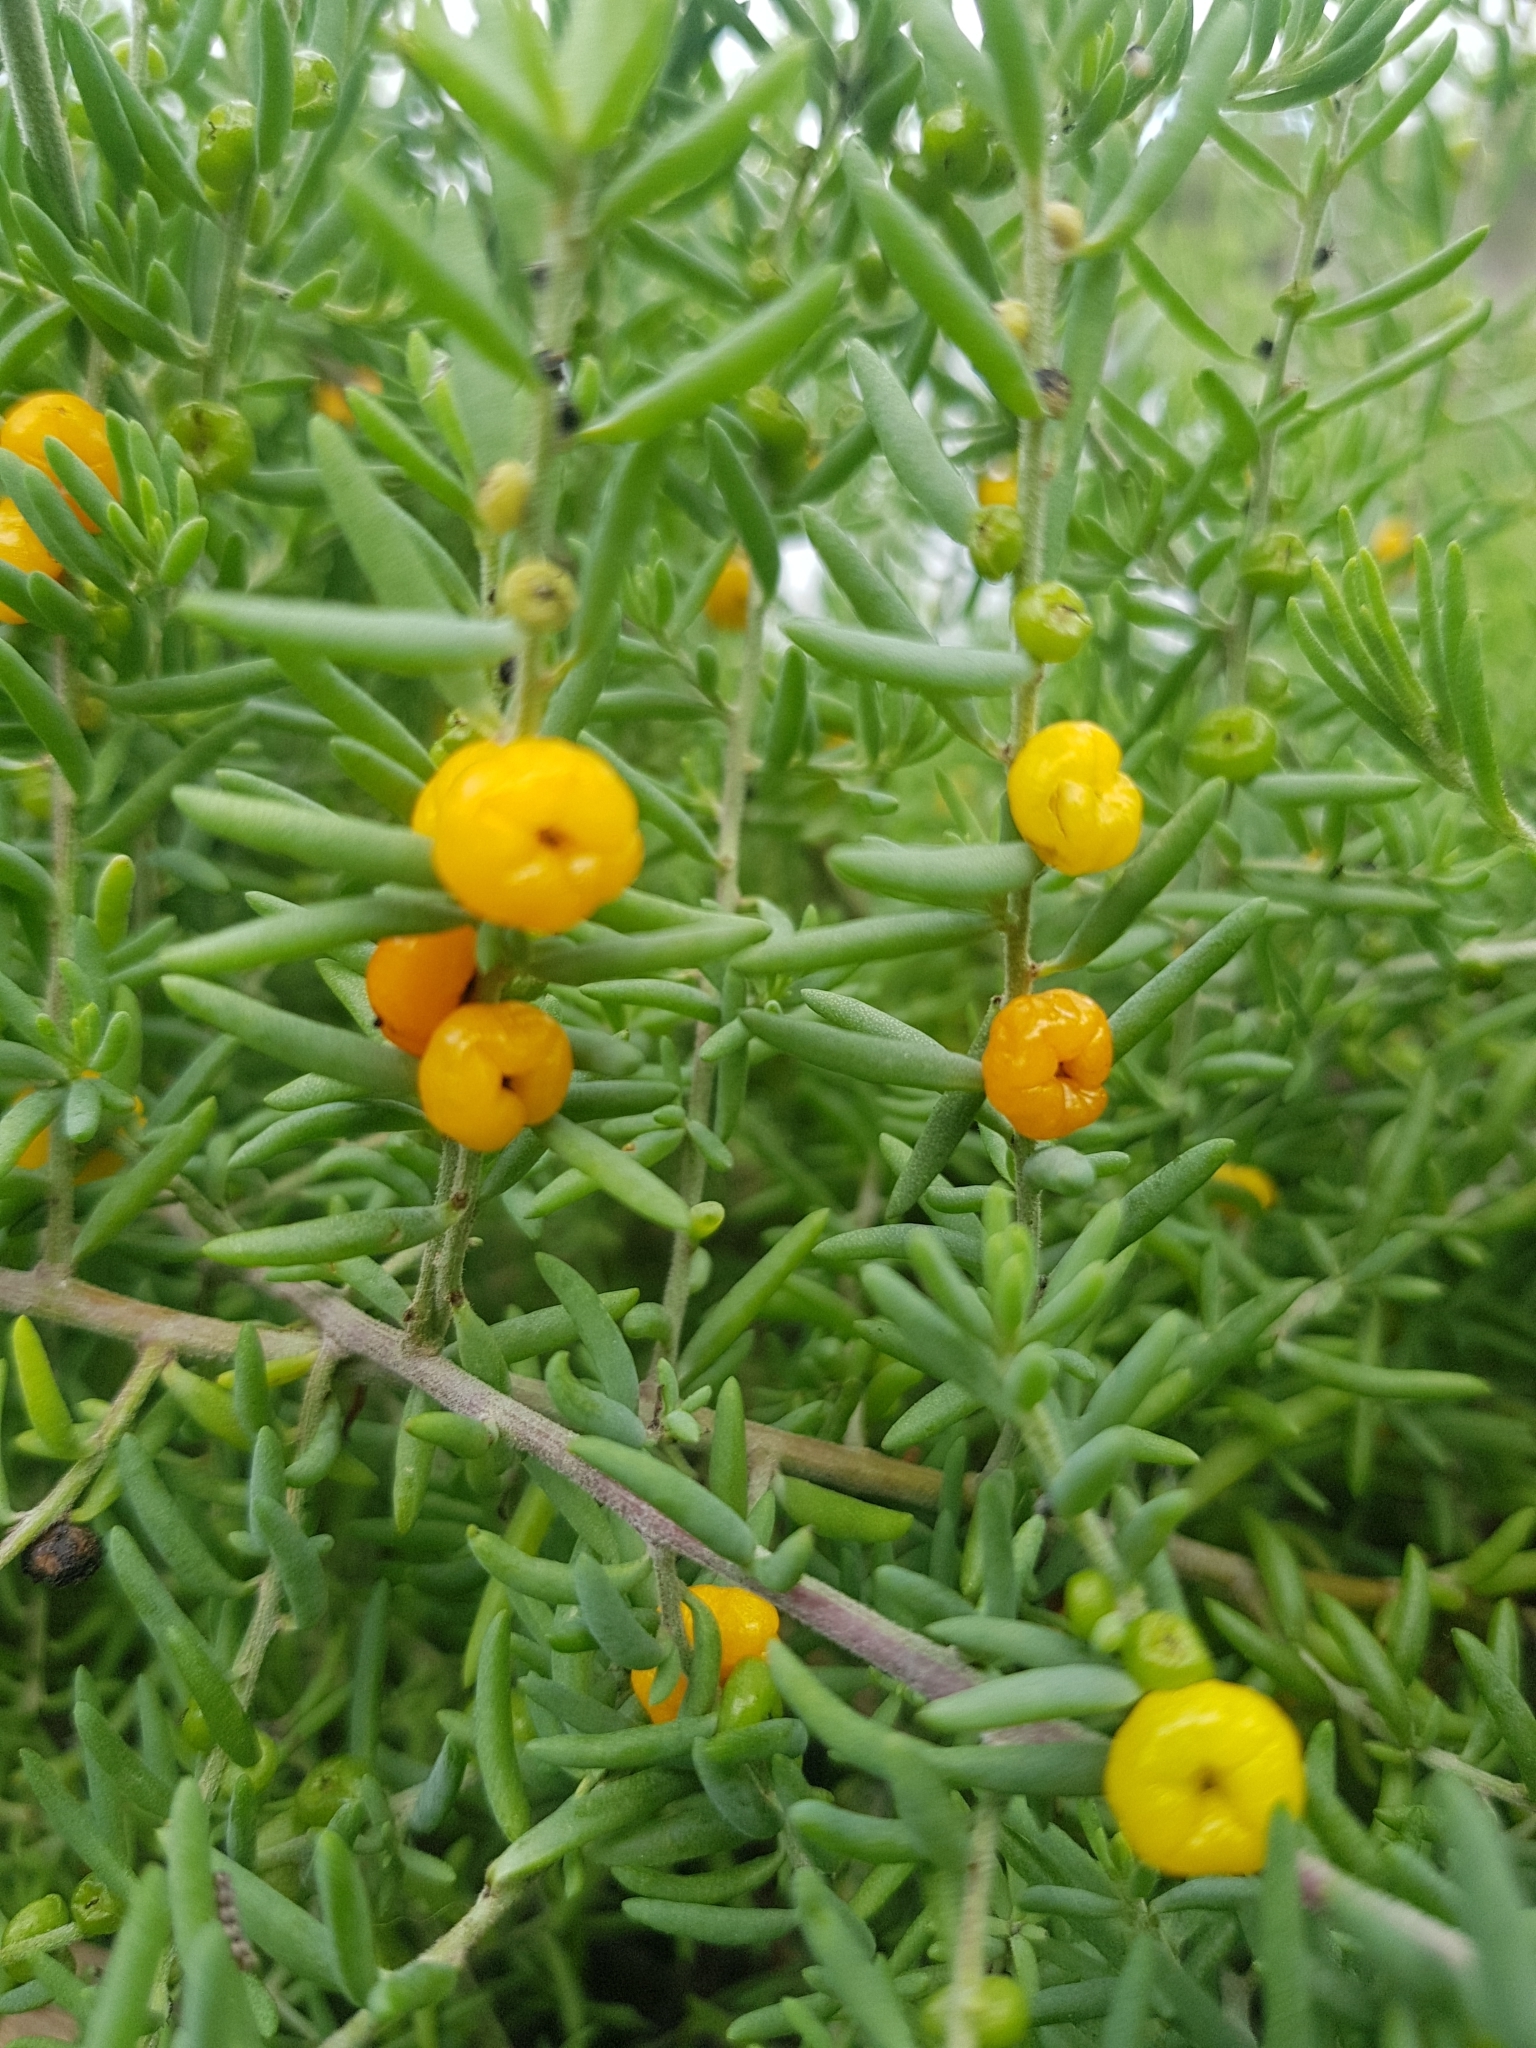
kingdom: Plantae
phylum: Tracheophyta
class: Magnoliopsida
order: Caryophyllales
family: Amaranthaceae
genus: Enchylaena
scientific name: Enchylaena tomentosa
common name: Ruby saltbush
